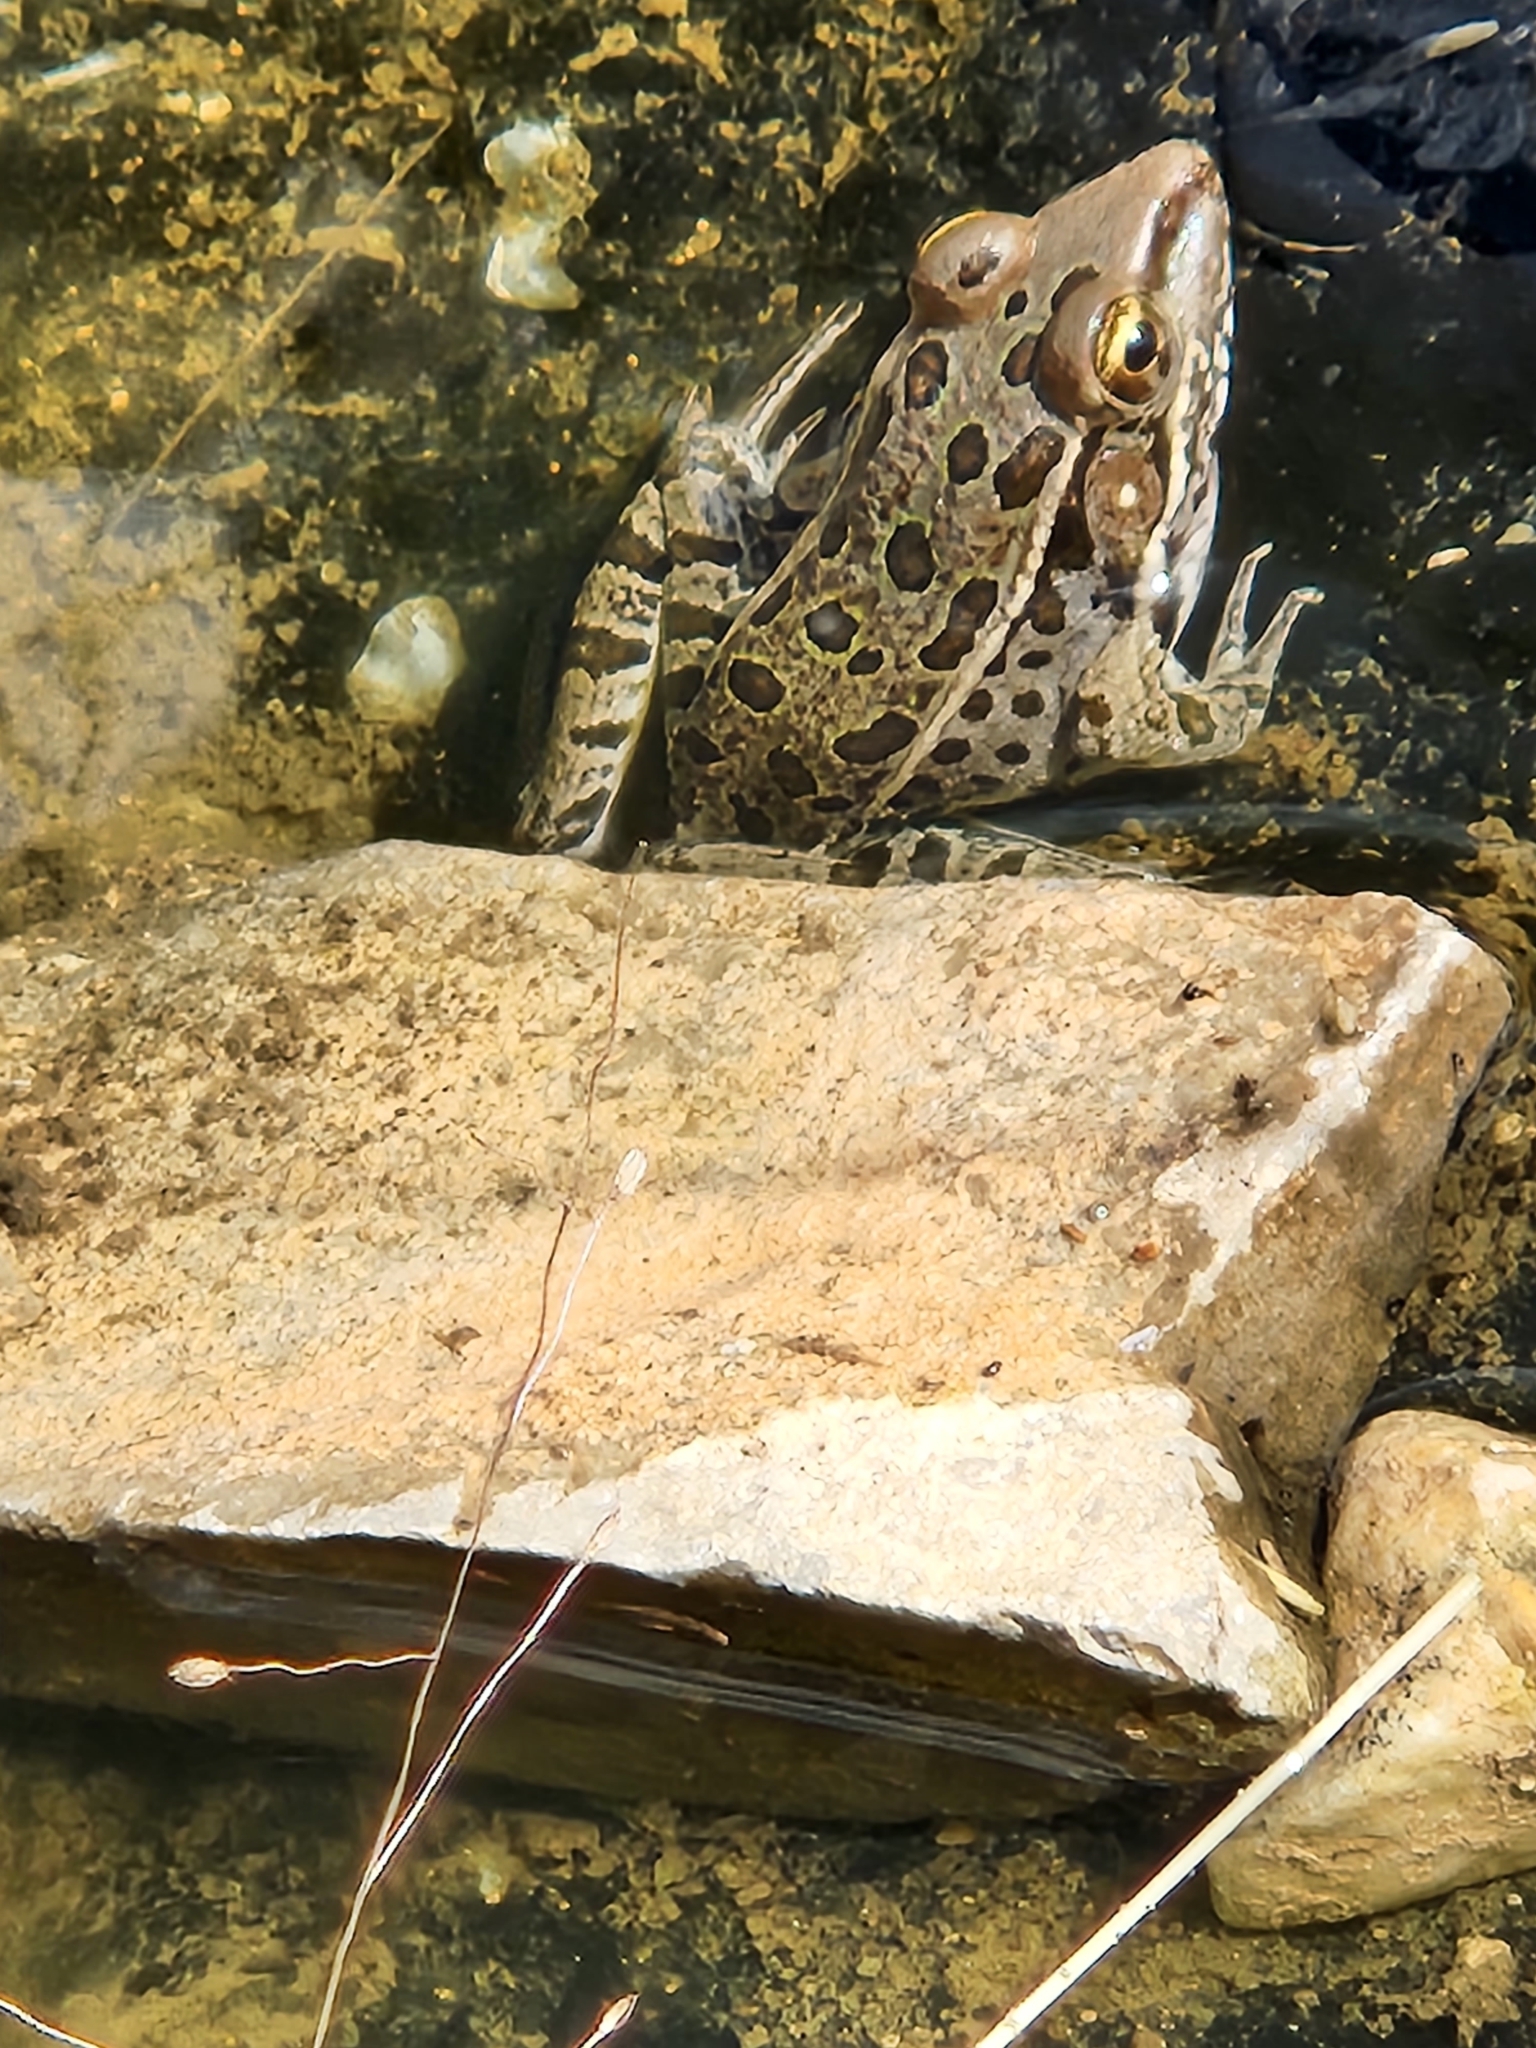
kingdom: Animalia
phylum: Chordata
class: Amphibia
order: Anura
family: Ranidae
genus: Lithobates
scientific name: Lithobates berlandieri
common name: Rio grande leopard frog
